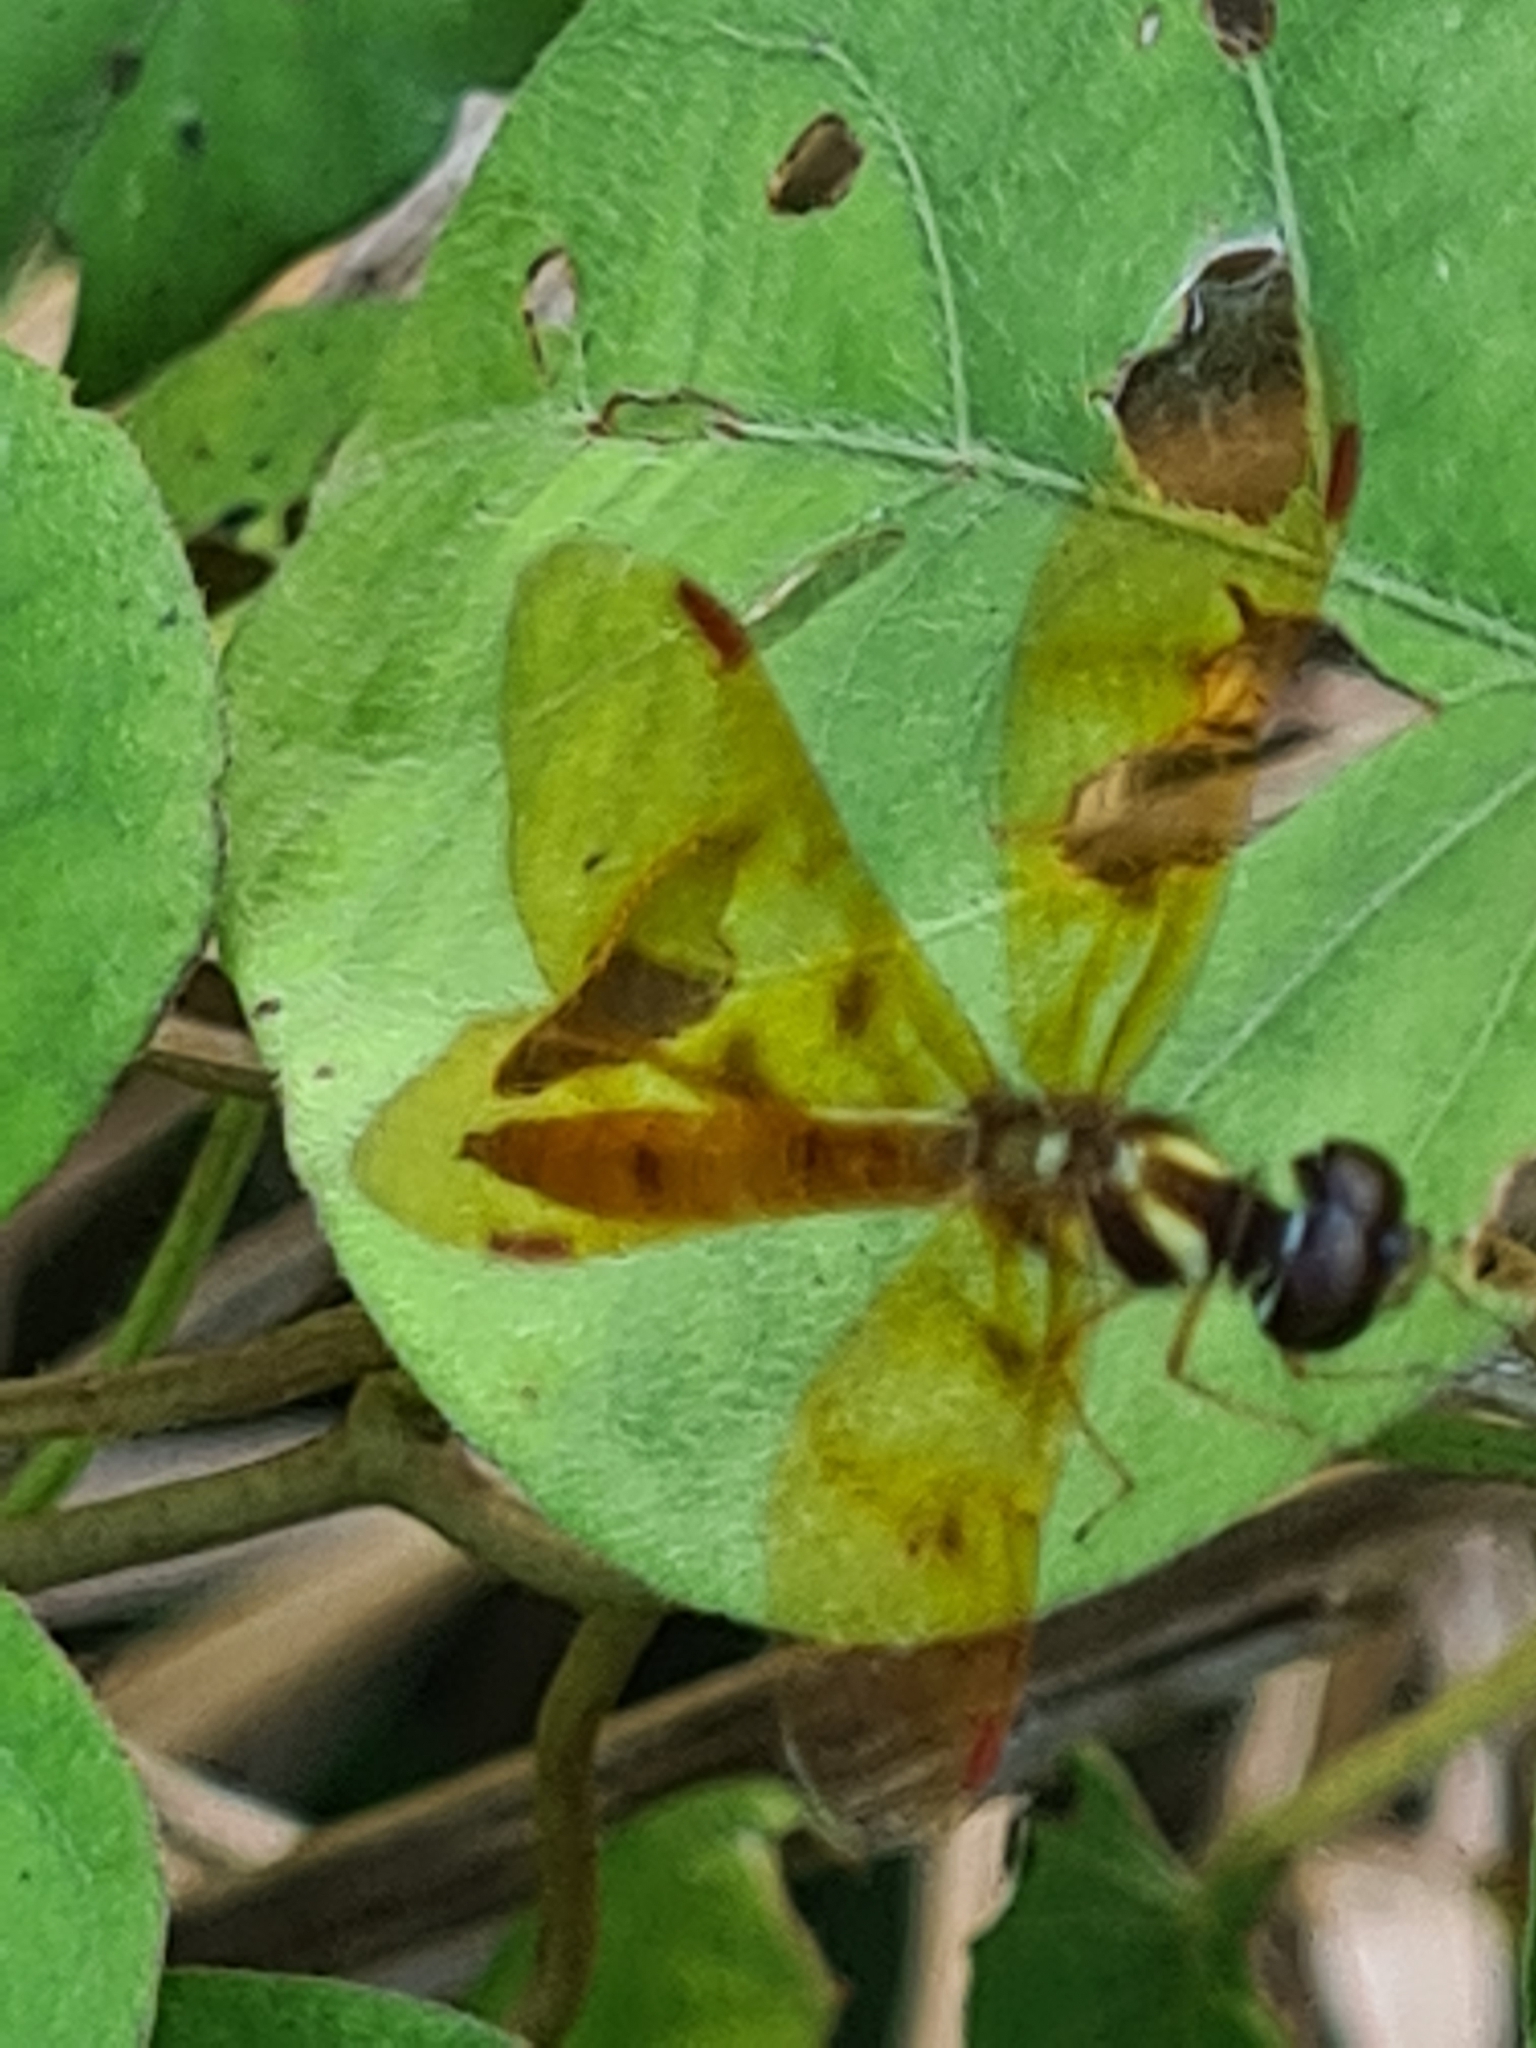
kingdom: Animalia
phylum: Arthropoda
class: Insecta
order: Odonata
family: Libellulidae
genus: Perithemis
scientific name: Perithemis lais
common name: Fine-banded amberwing
